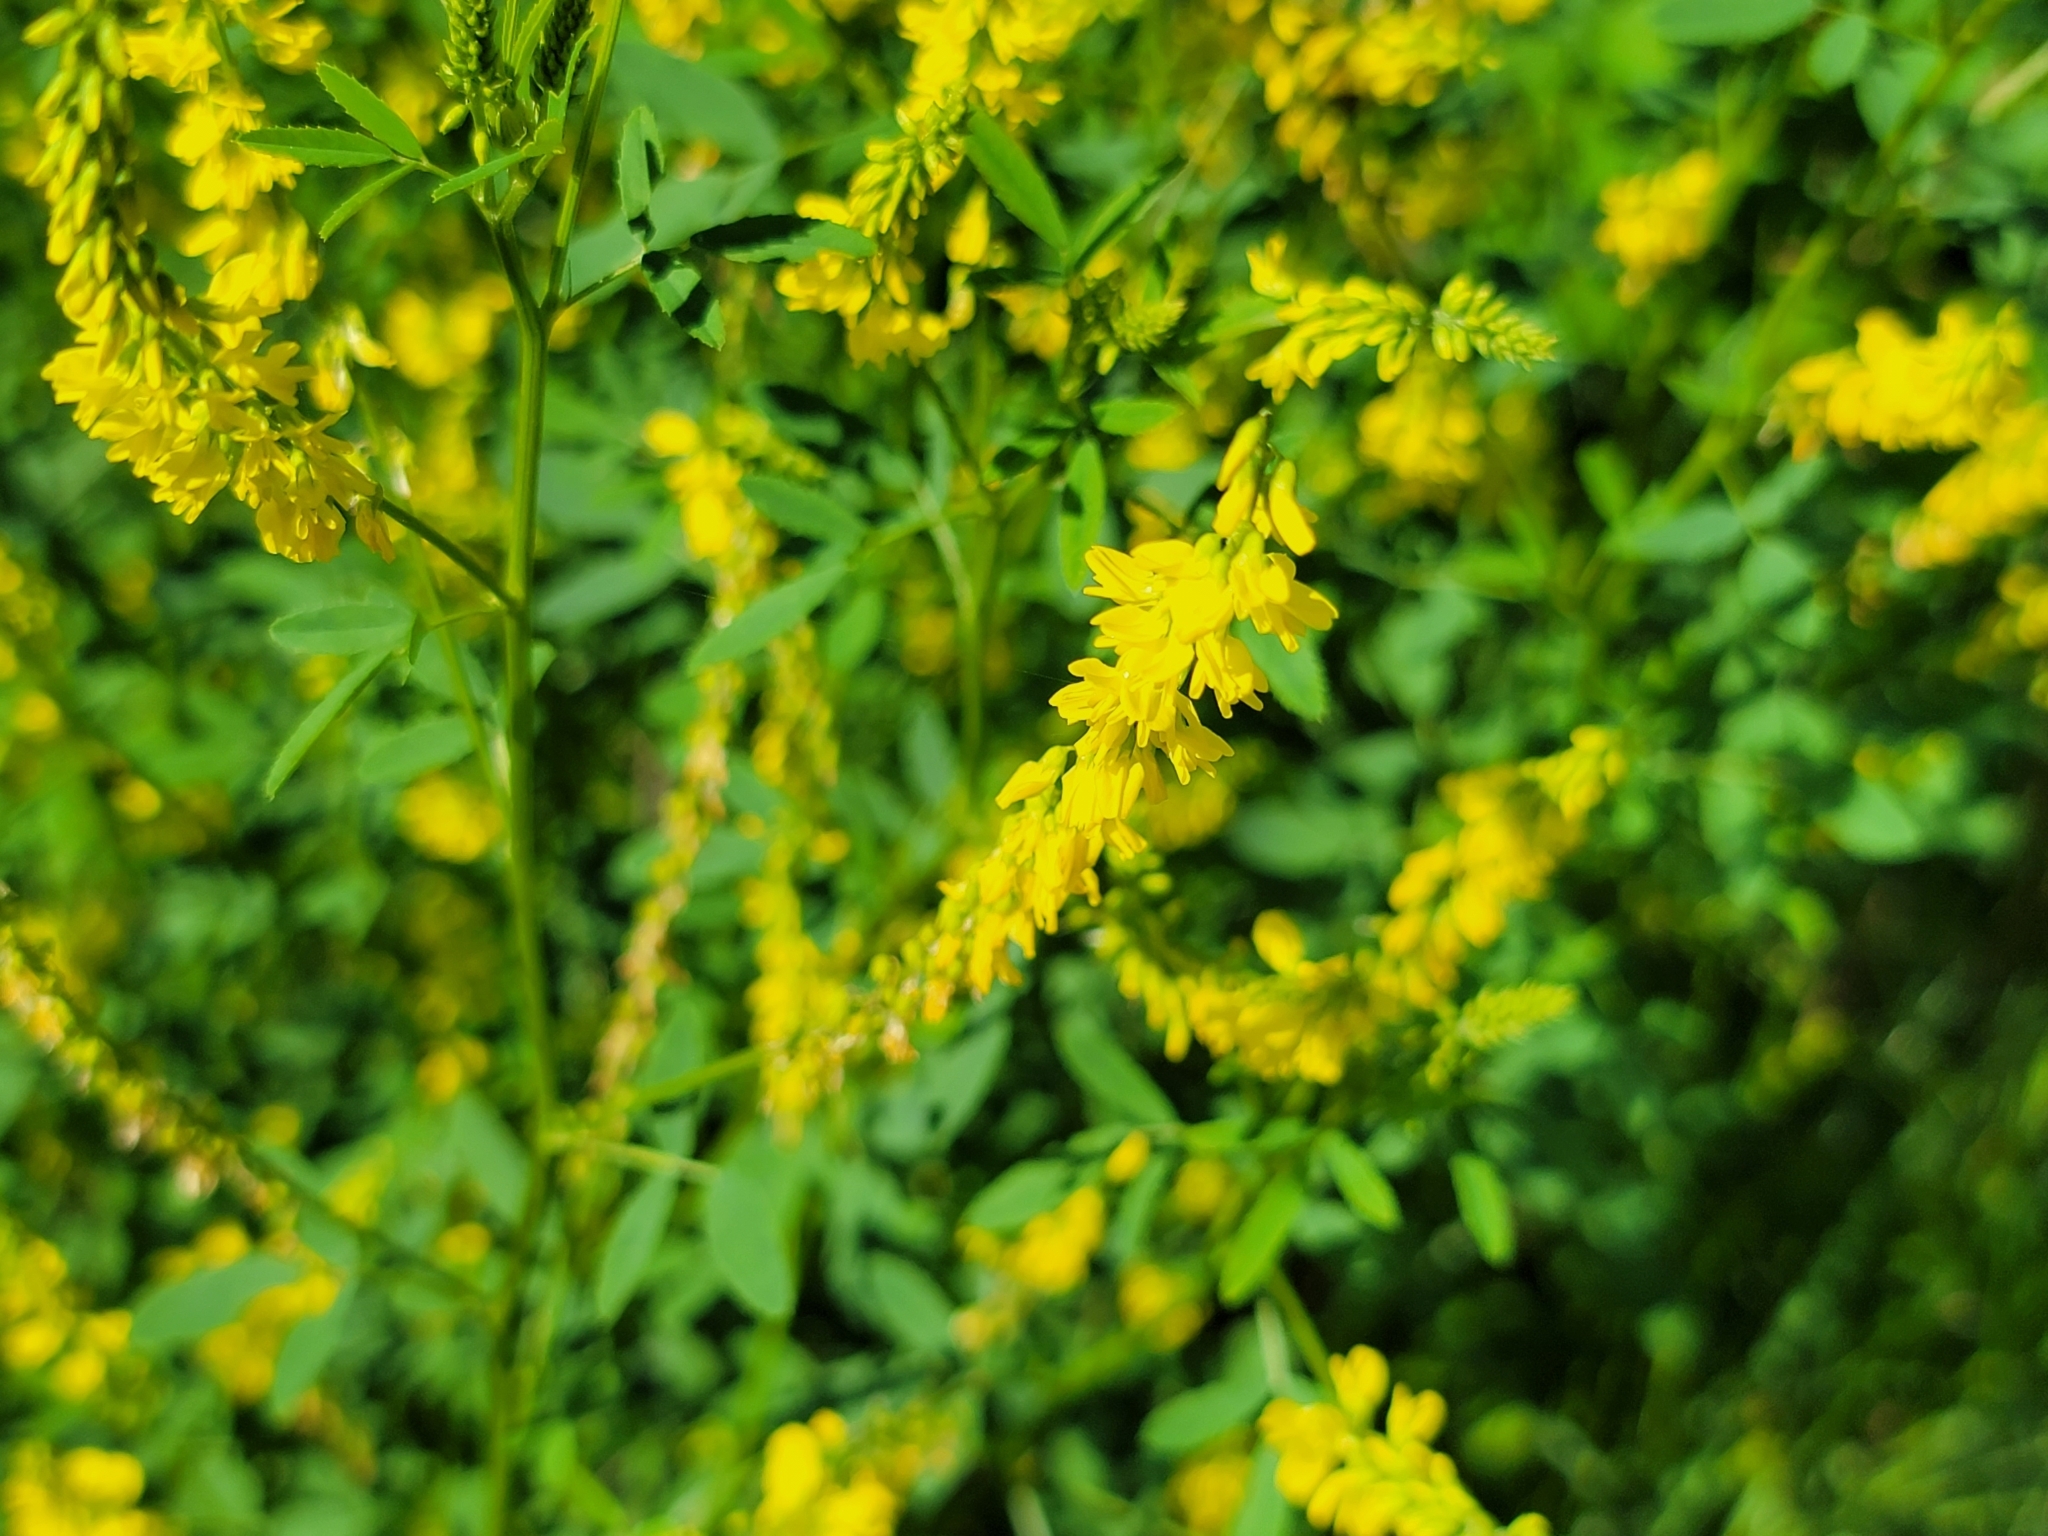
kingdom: Plantae
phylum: Tracheophyta
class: Magnoliopsida
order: Fabales
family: Fabaceae
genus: Melilotus
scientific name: Melilotus officinalis
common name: Sweetclover
